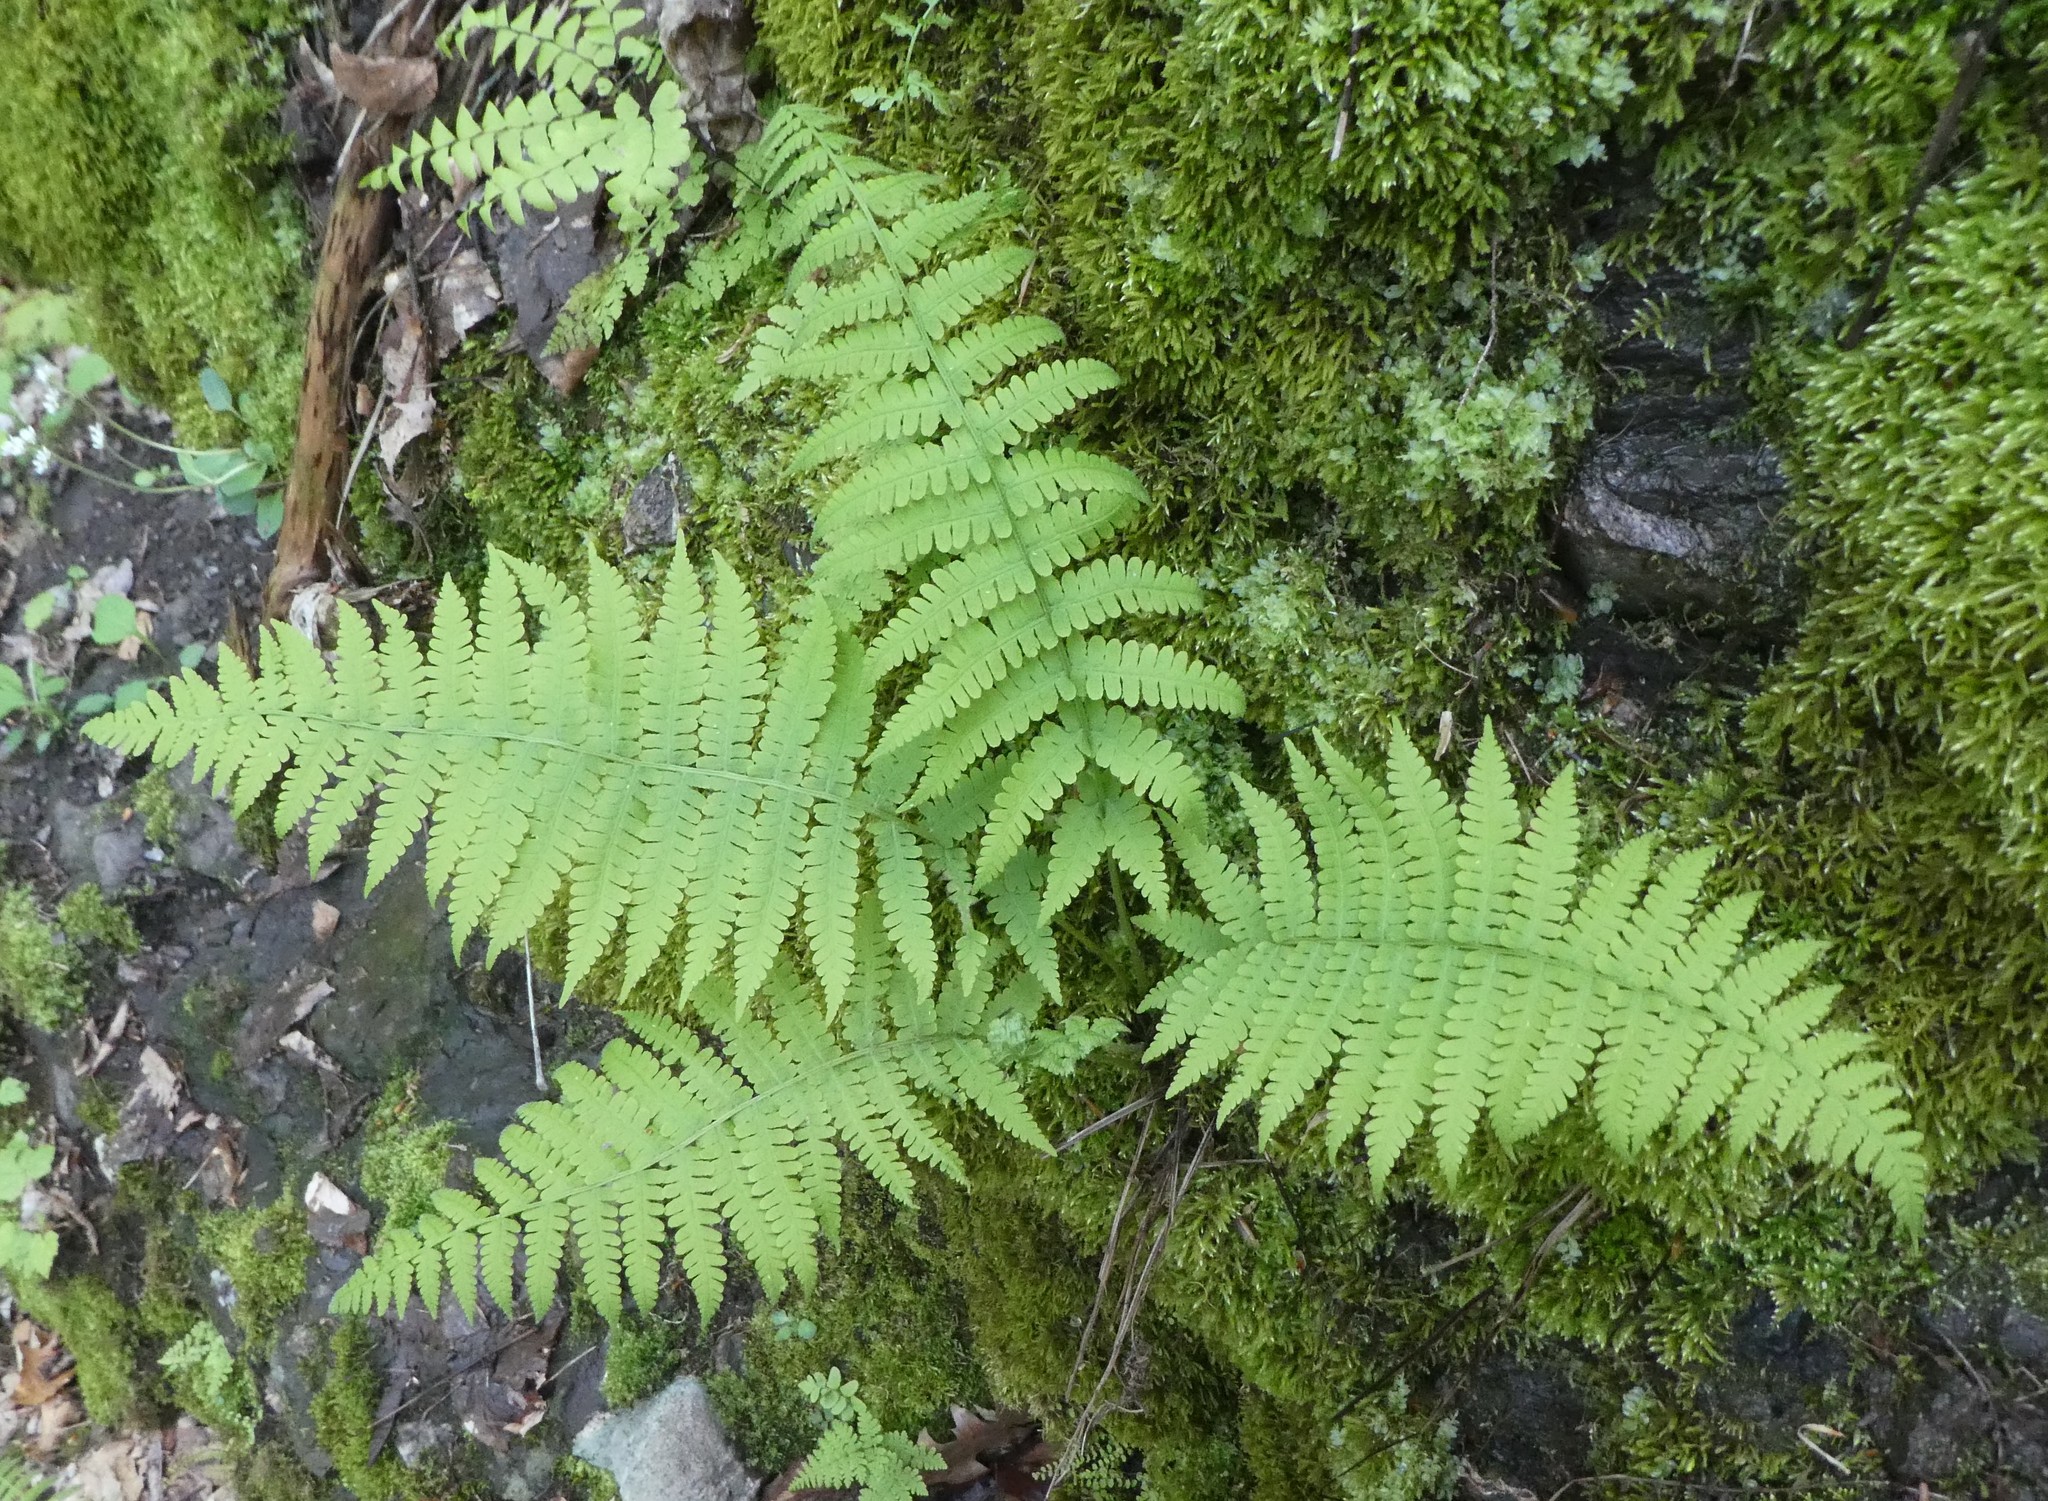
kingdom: Plantae
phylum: Tracheophyta
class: Polypodiopsida
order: Polypodiales
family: Athyriaceae
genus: Deparia
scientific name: Deparia acrostichoides
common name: Silver false spleenwort
